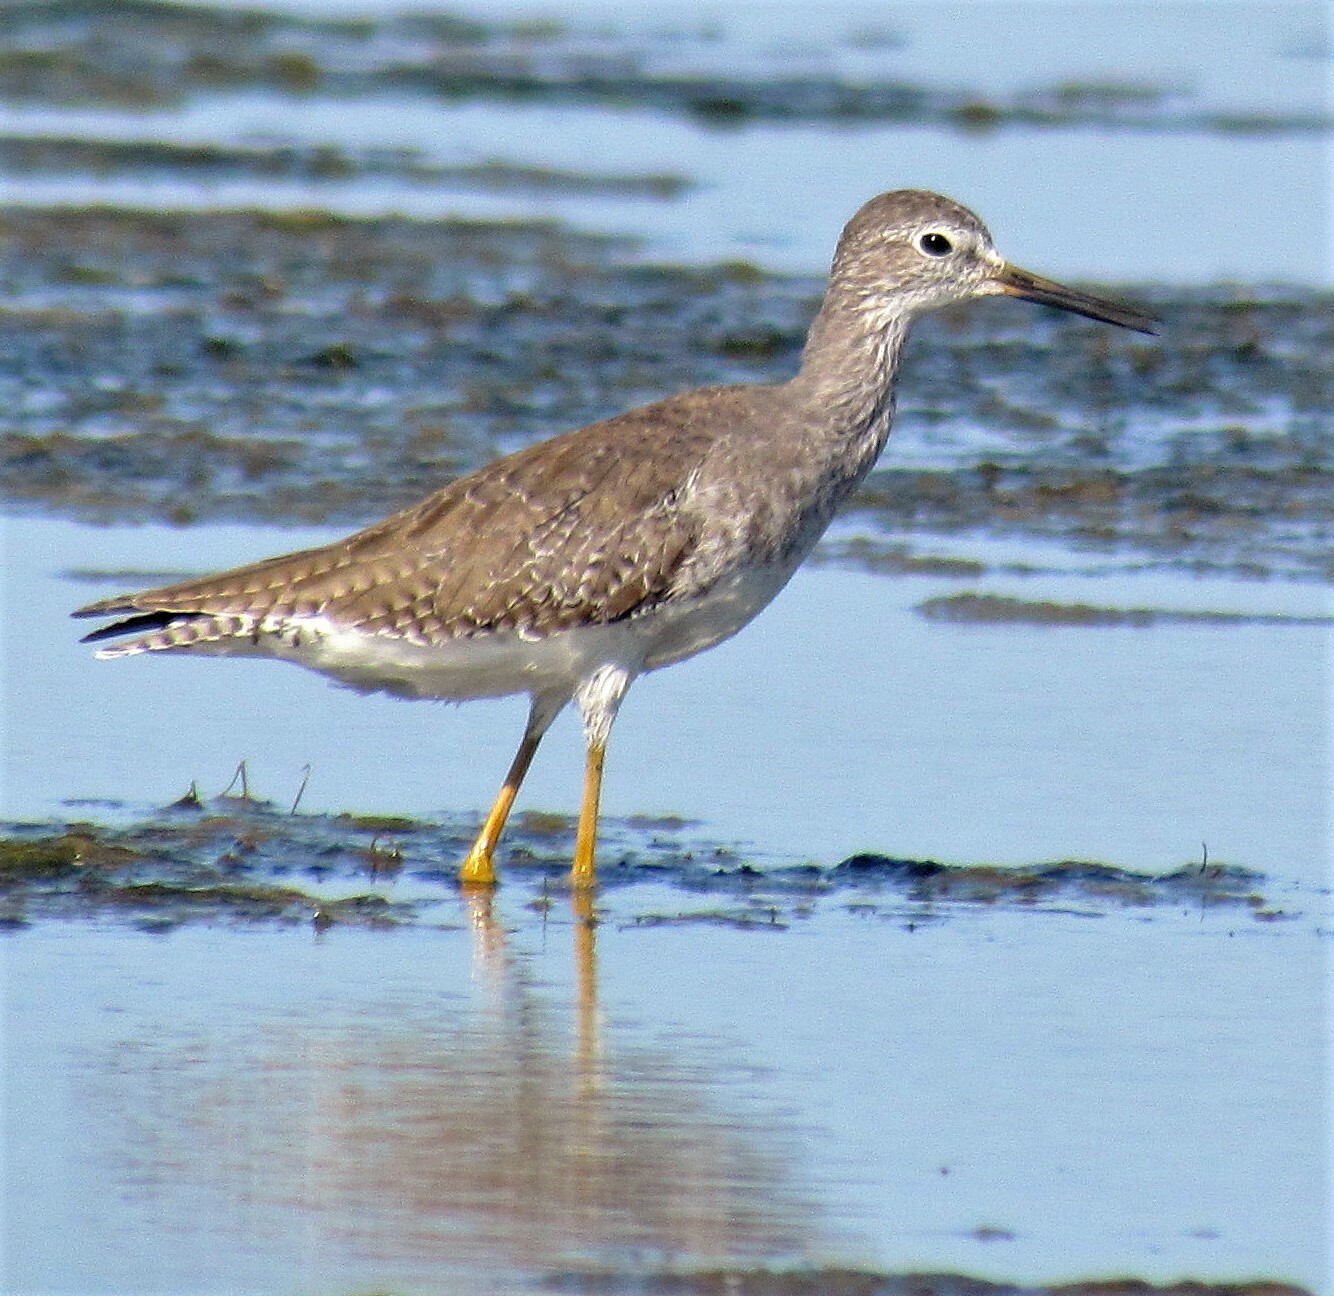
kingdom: Animalia
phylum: Chordata
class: Aves
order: Charadriiformes
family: Scolopacidae
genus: Tringa
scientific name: Tringa flavipes
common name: Lesser yellowlegs
